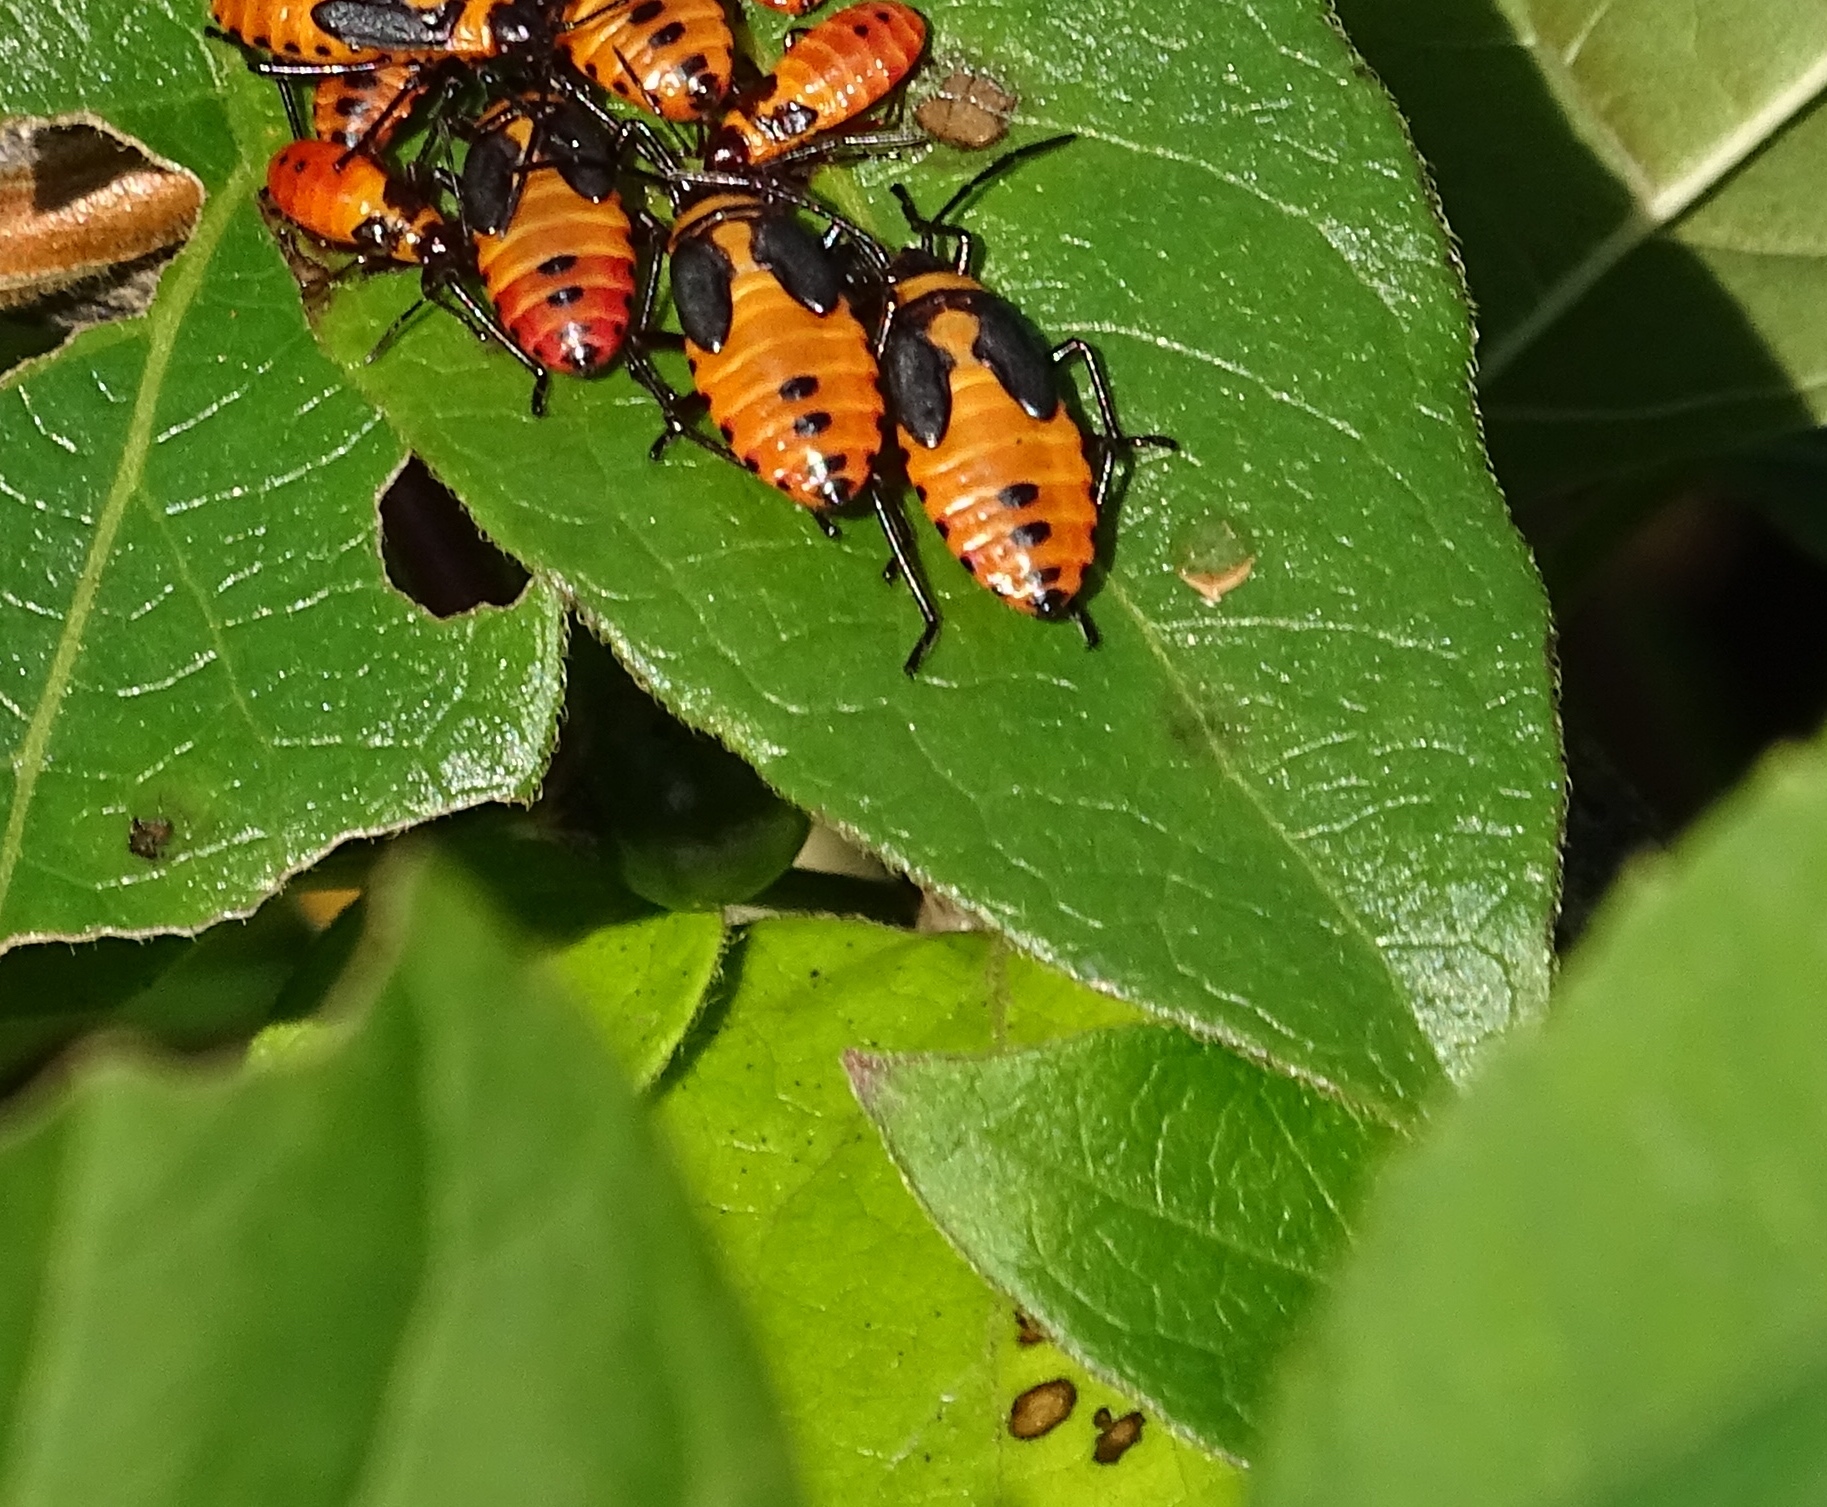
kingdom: Animalia
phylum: Arthropoda
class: Insecta
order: Hemiptera
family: Lygaeidae
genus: Oncopeltus
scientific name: Oncopeltus fasciatus
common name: Large milkweed bug
